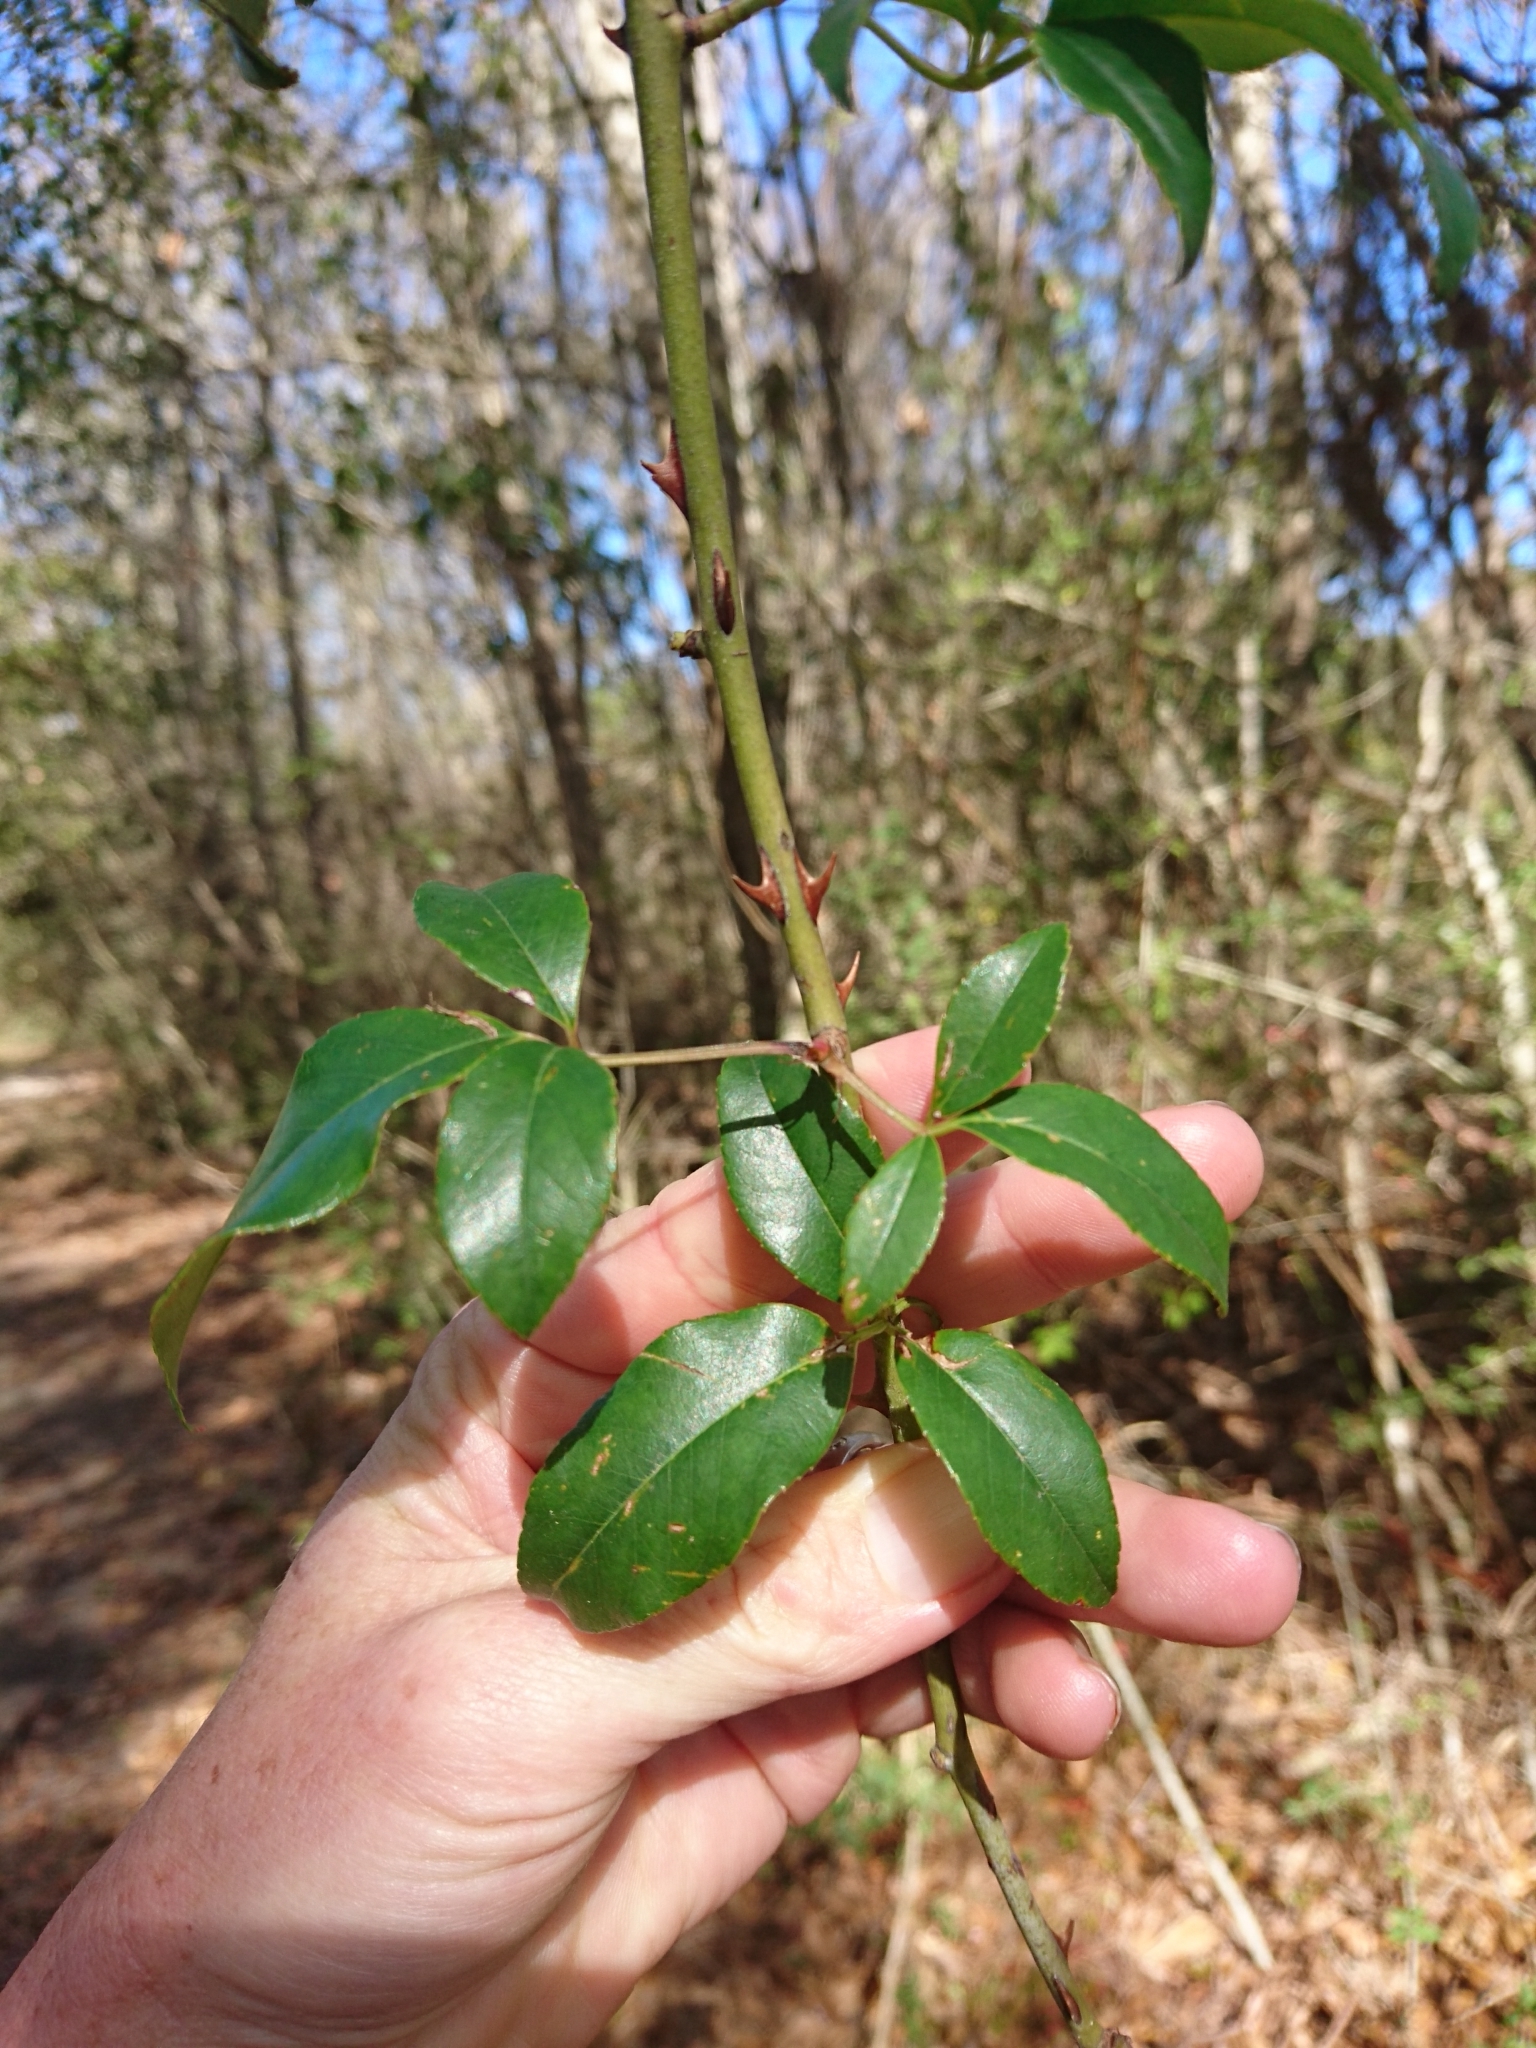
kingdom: Plantae
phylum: Tracheophyta
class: Magnoliopsida
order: Rosales
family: Rosaceae
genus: Rosa
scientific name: Rosa laevigata
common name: Cherokee rose
